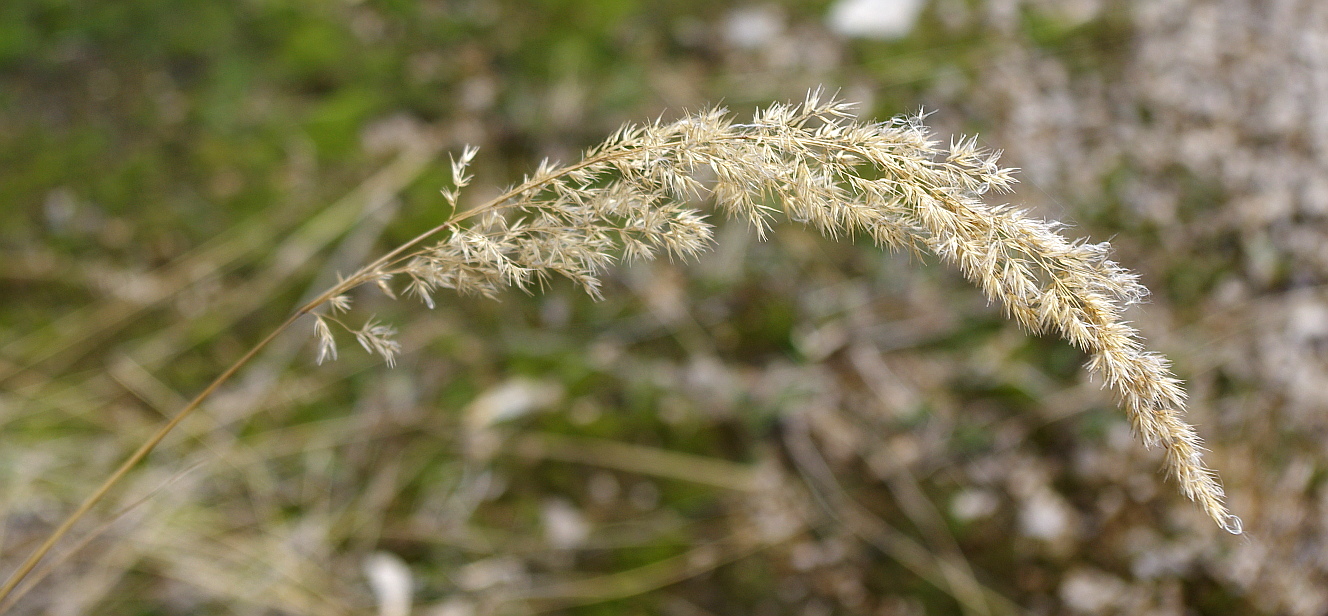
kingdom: Plantae
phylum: Tracheophyta
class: Liliopsida
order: Poales
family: Poaceae
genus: Calamagrostis
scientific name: Calamagrostis epigejos
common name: Wood small-reed
